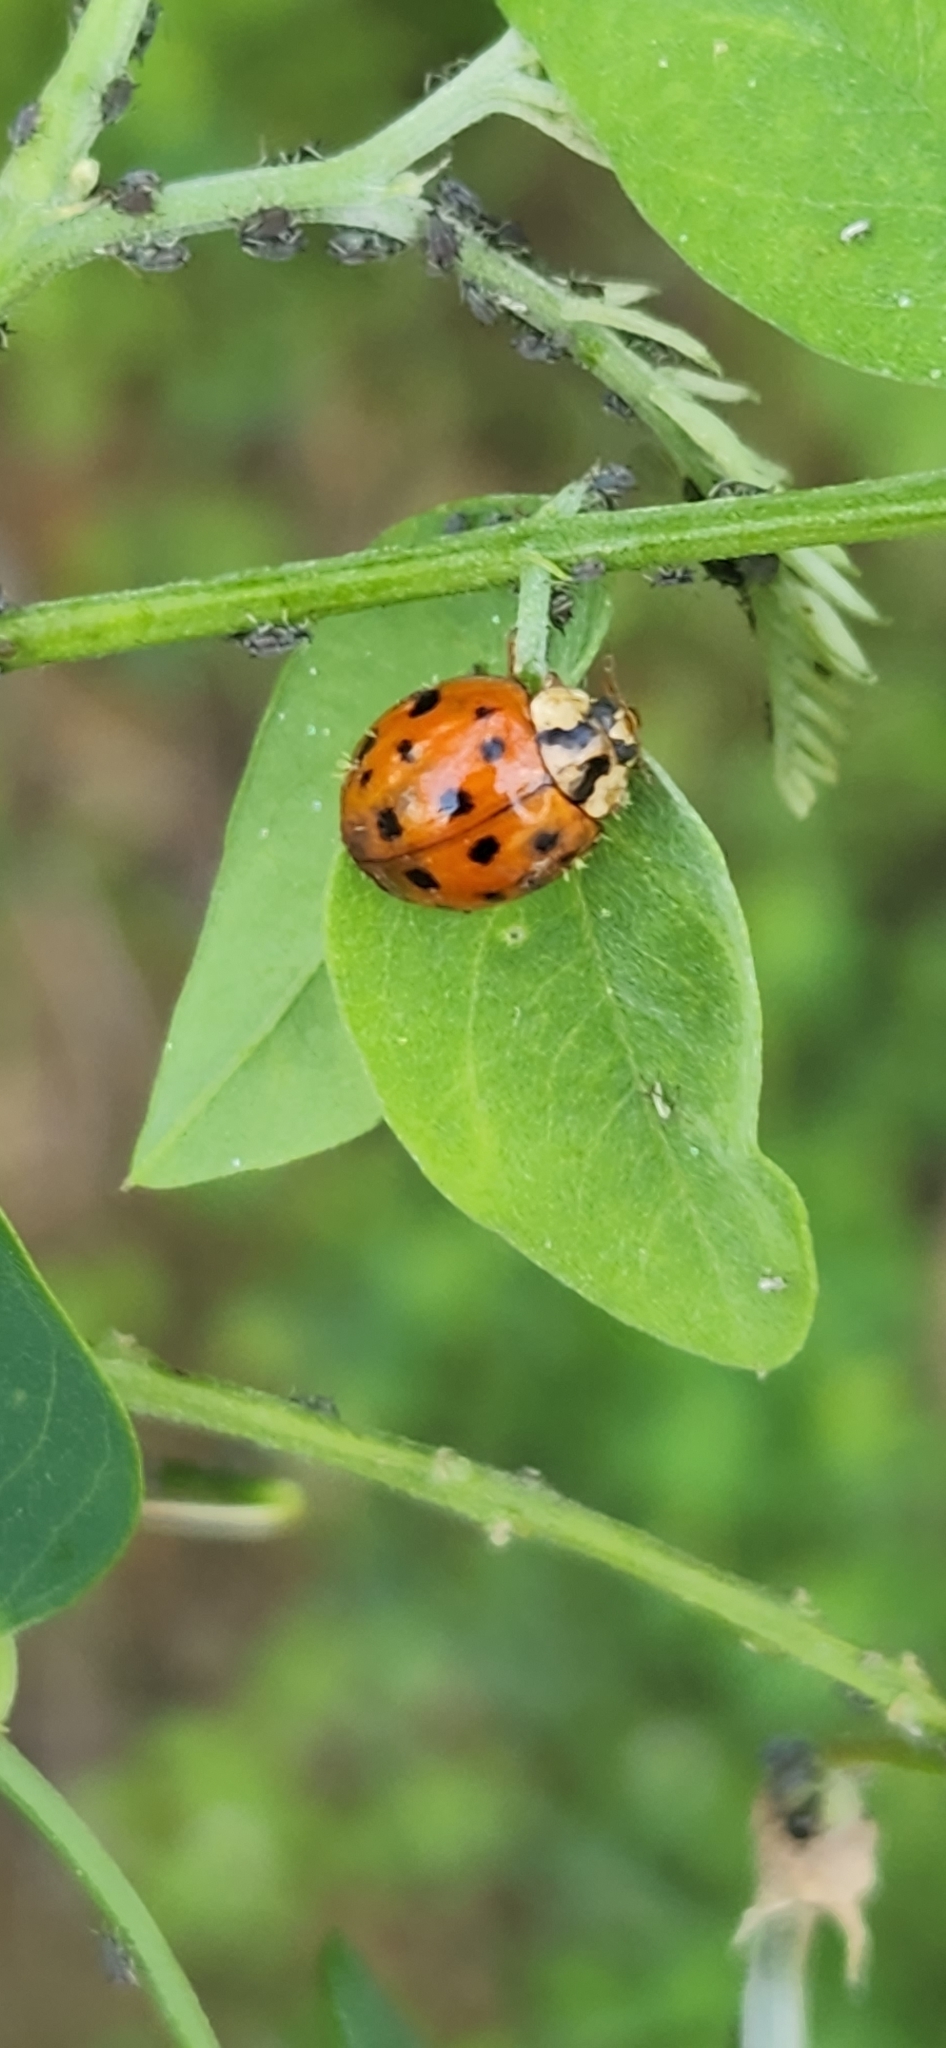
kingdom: Animalia
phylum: Arthropoda
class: Insecta
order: Coleoptera
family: Coccinellidae
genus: Harmonia
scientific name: Harmonia axyridis
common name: Harlequin ladybird
